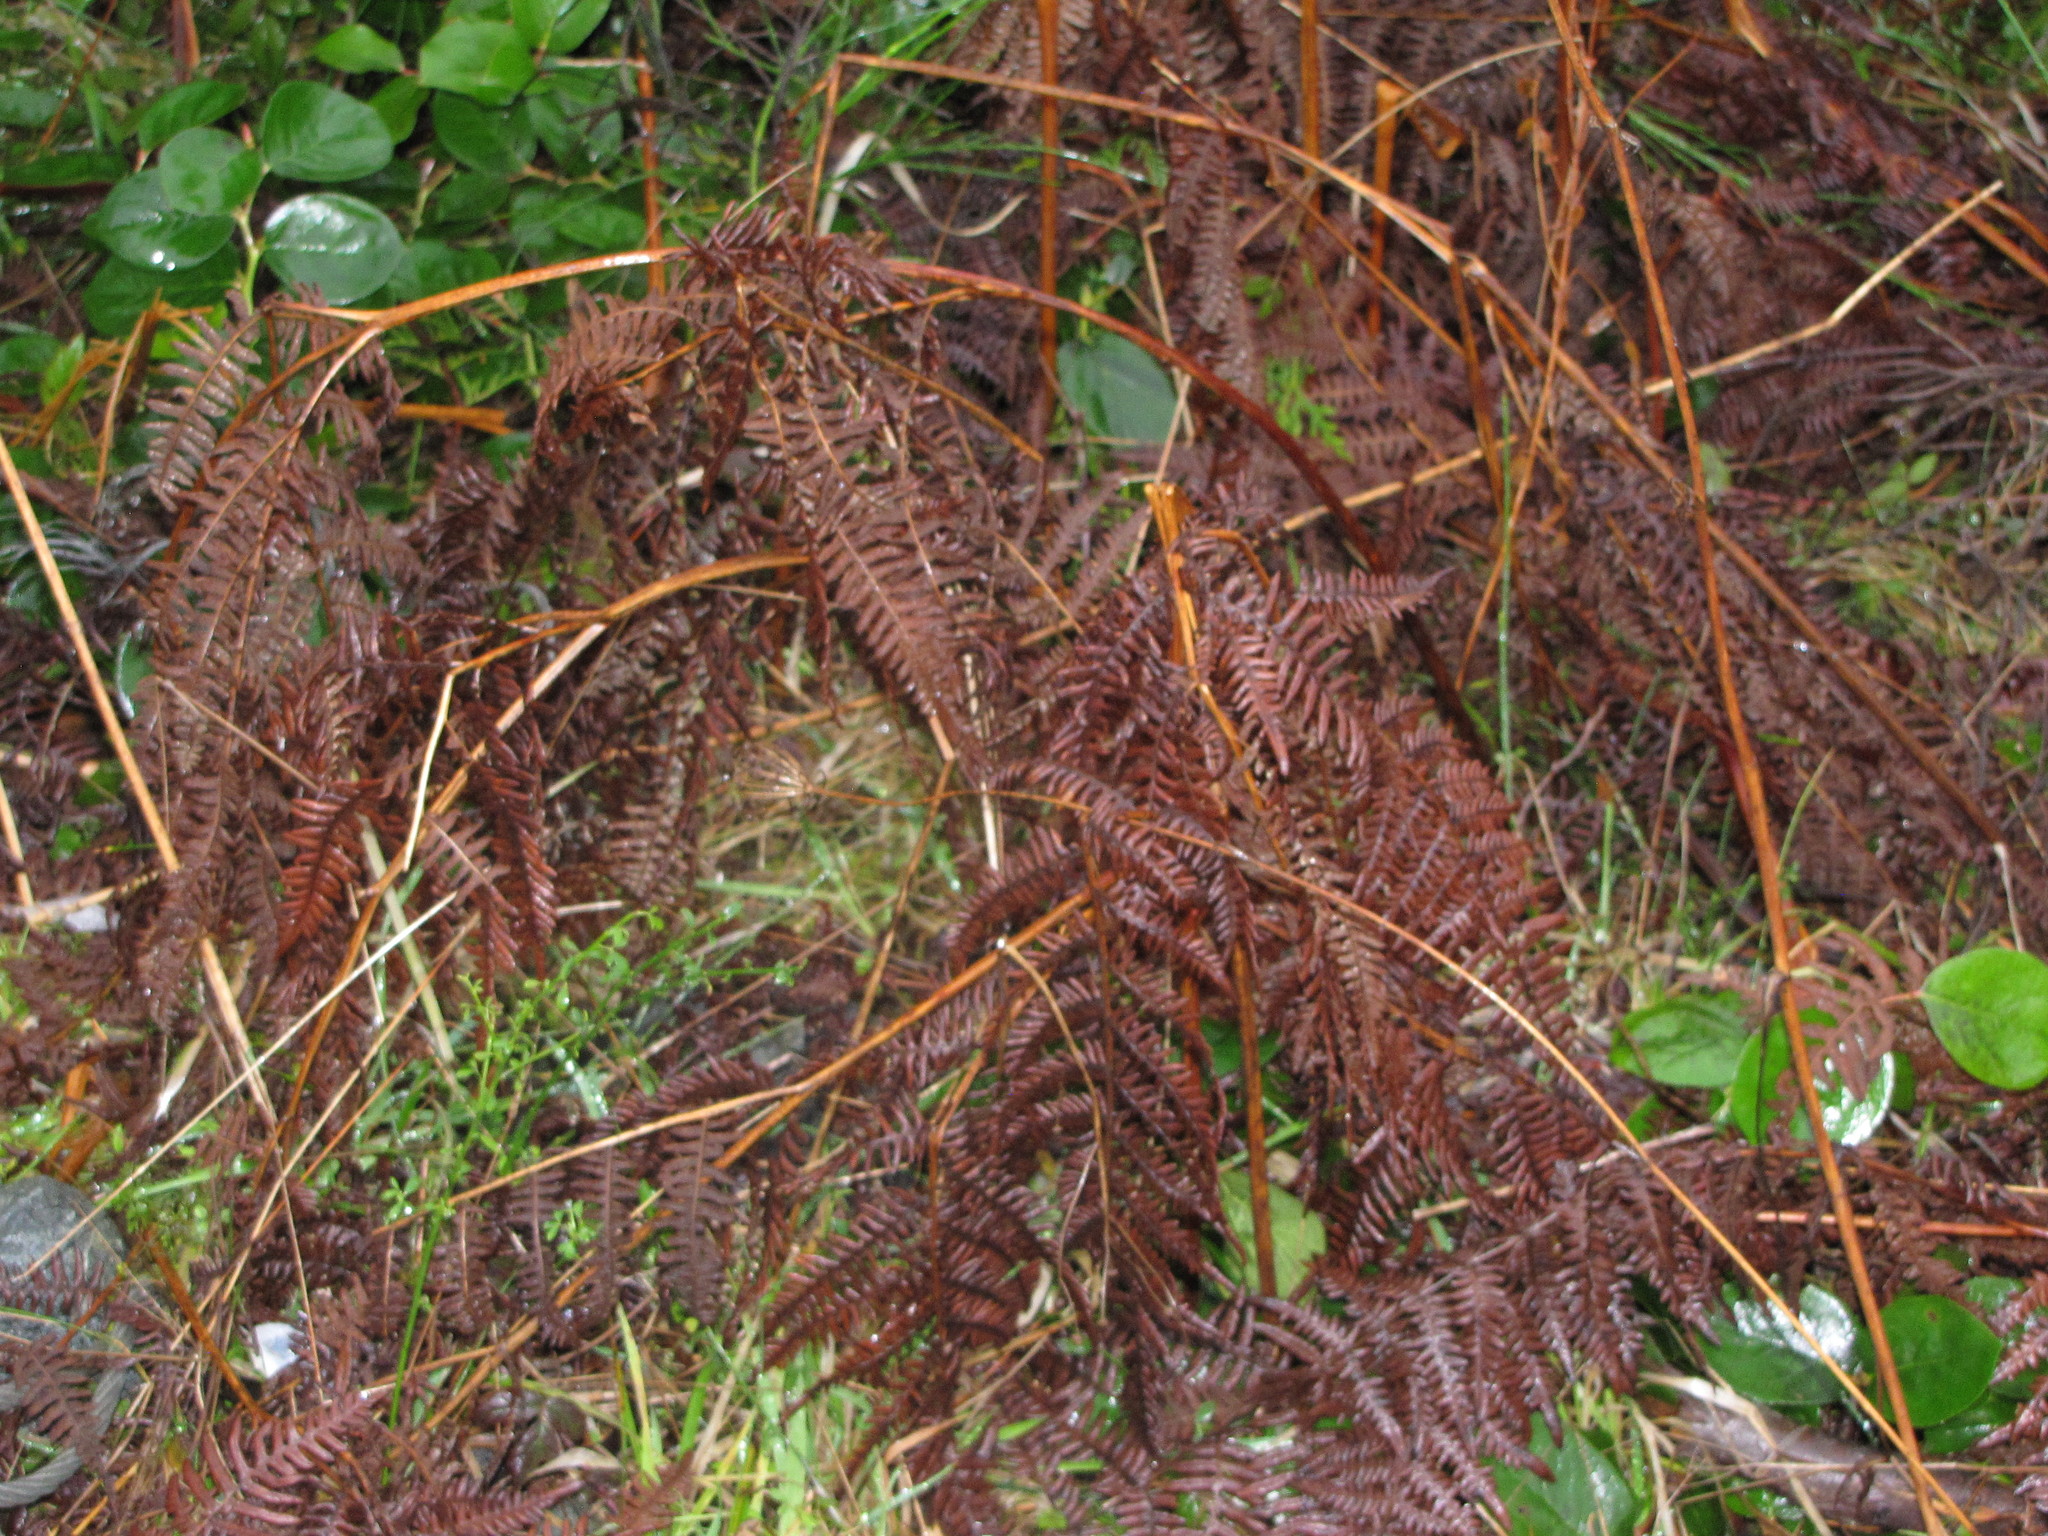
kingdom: Plantae
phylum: Tracheophyta
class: Polypodiopsida
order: Polypodiales
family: Dennstaedtiaceae
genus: Pteridium
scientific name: Pteridium aquilinum
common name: Bracken
